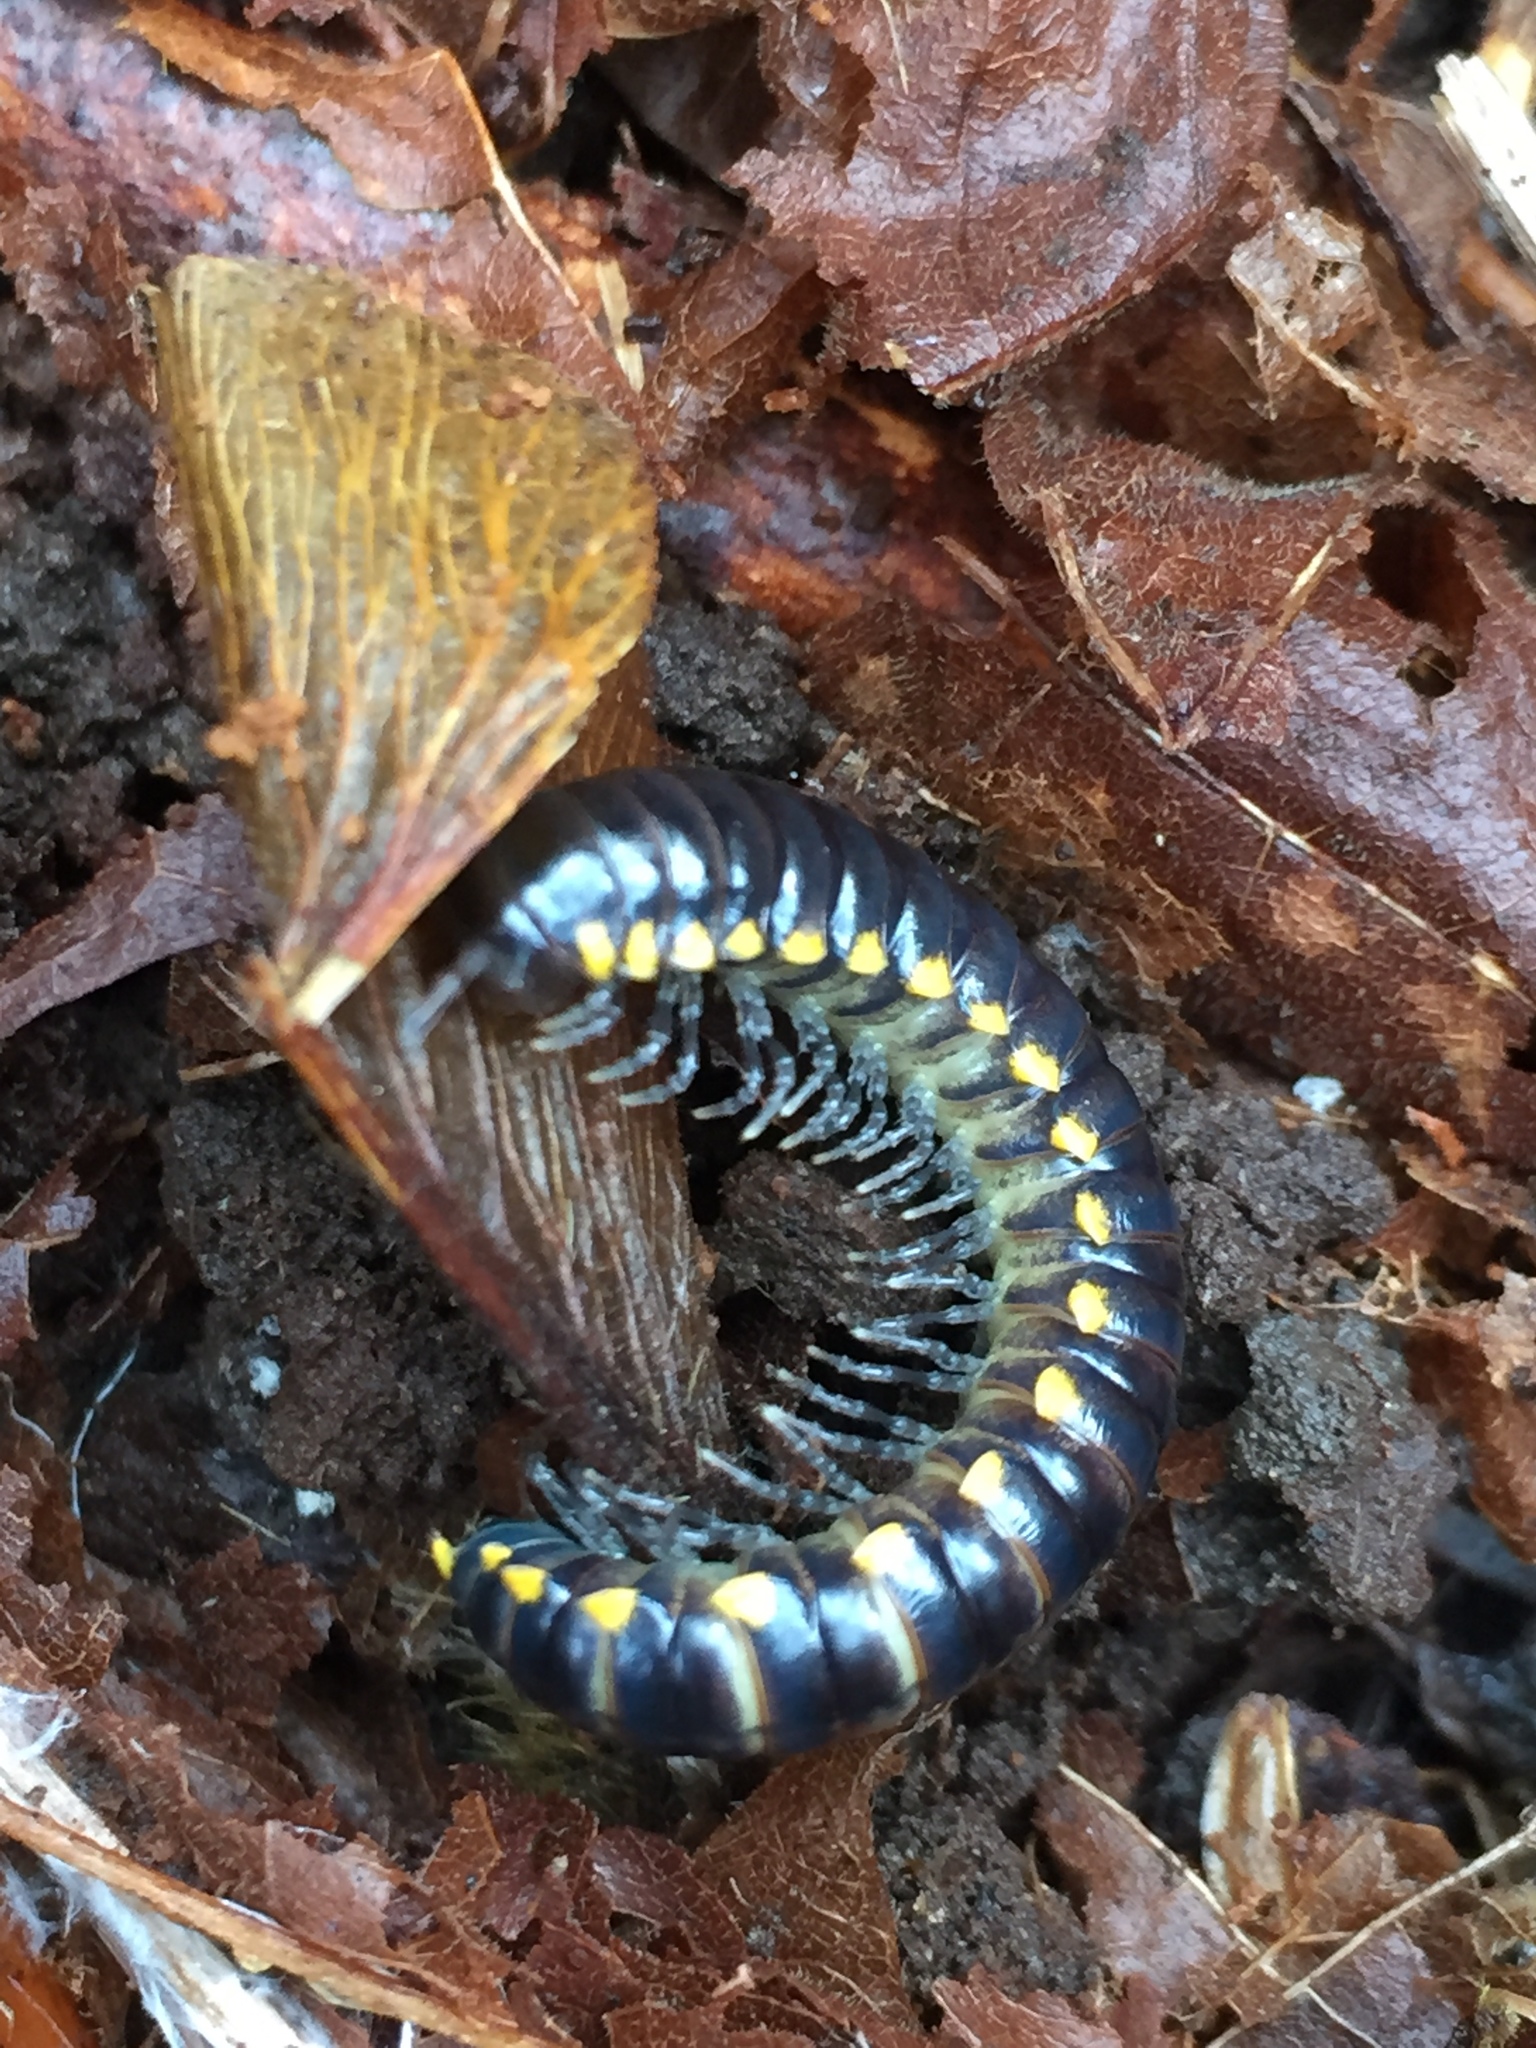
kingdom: Animalia
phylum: Arthropoda
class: Diplopoda
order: Polydesmida
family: Xystodesmidae
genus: Harpaphe
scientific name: Harpaphe haydeniana
